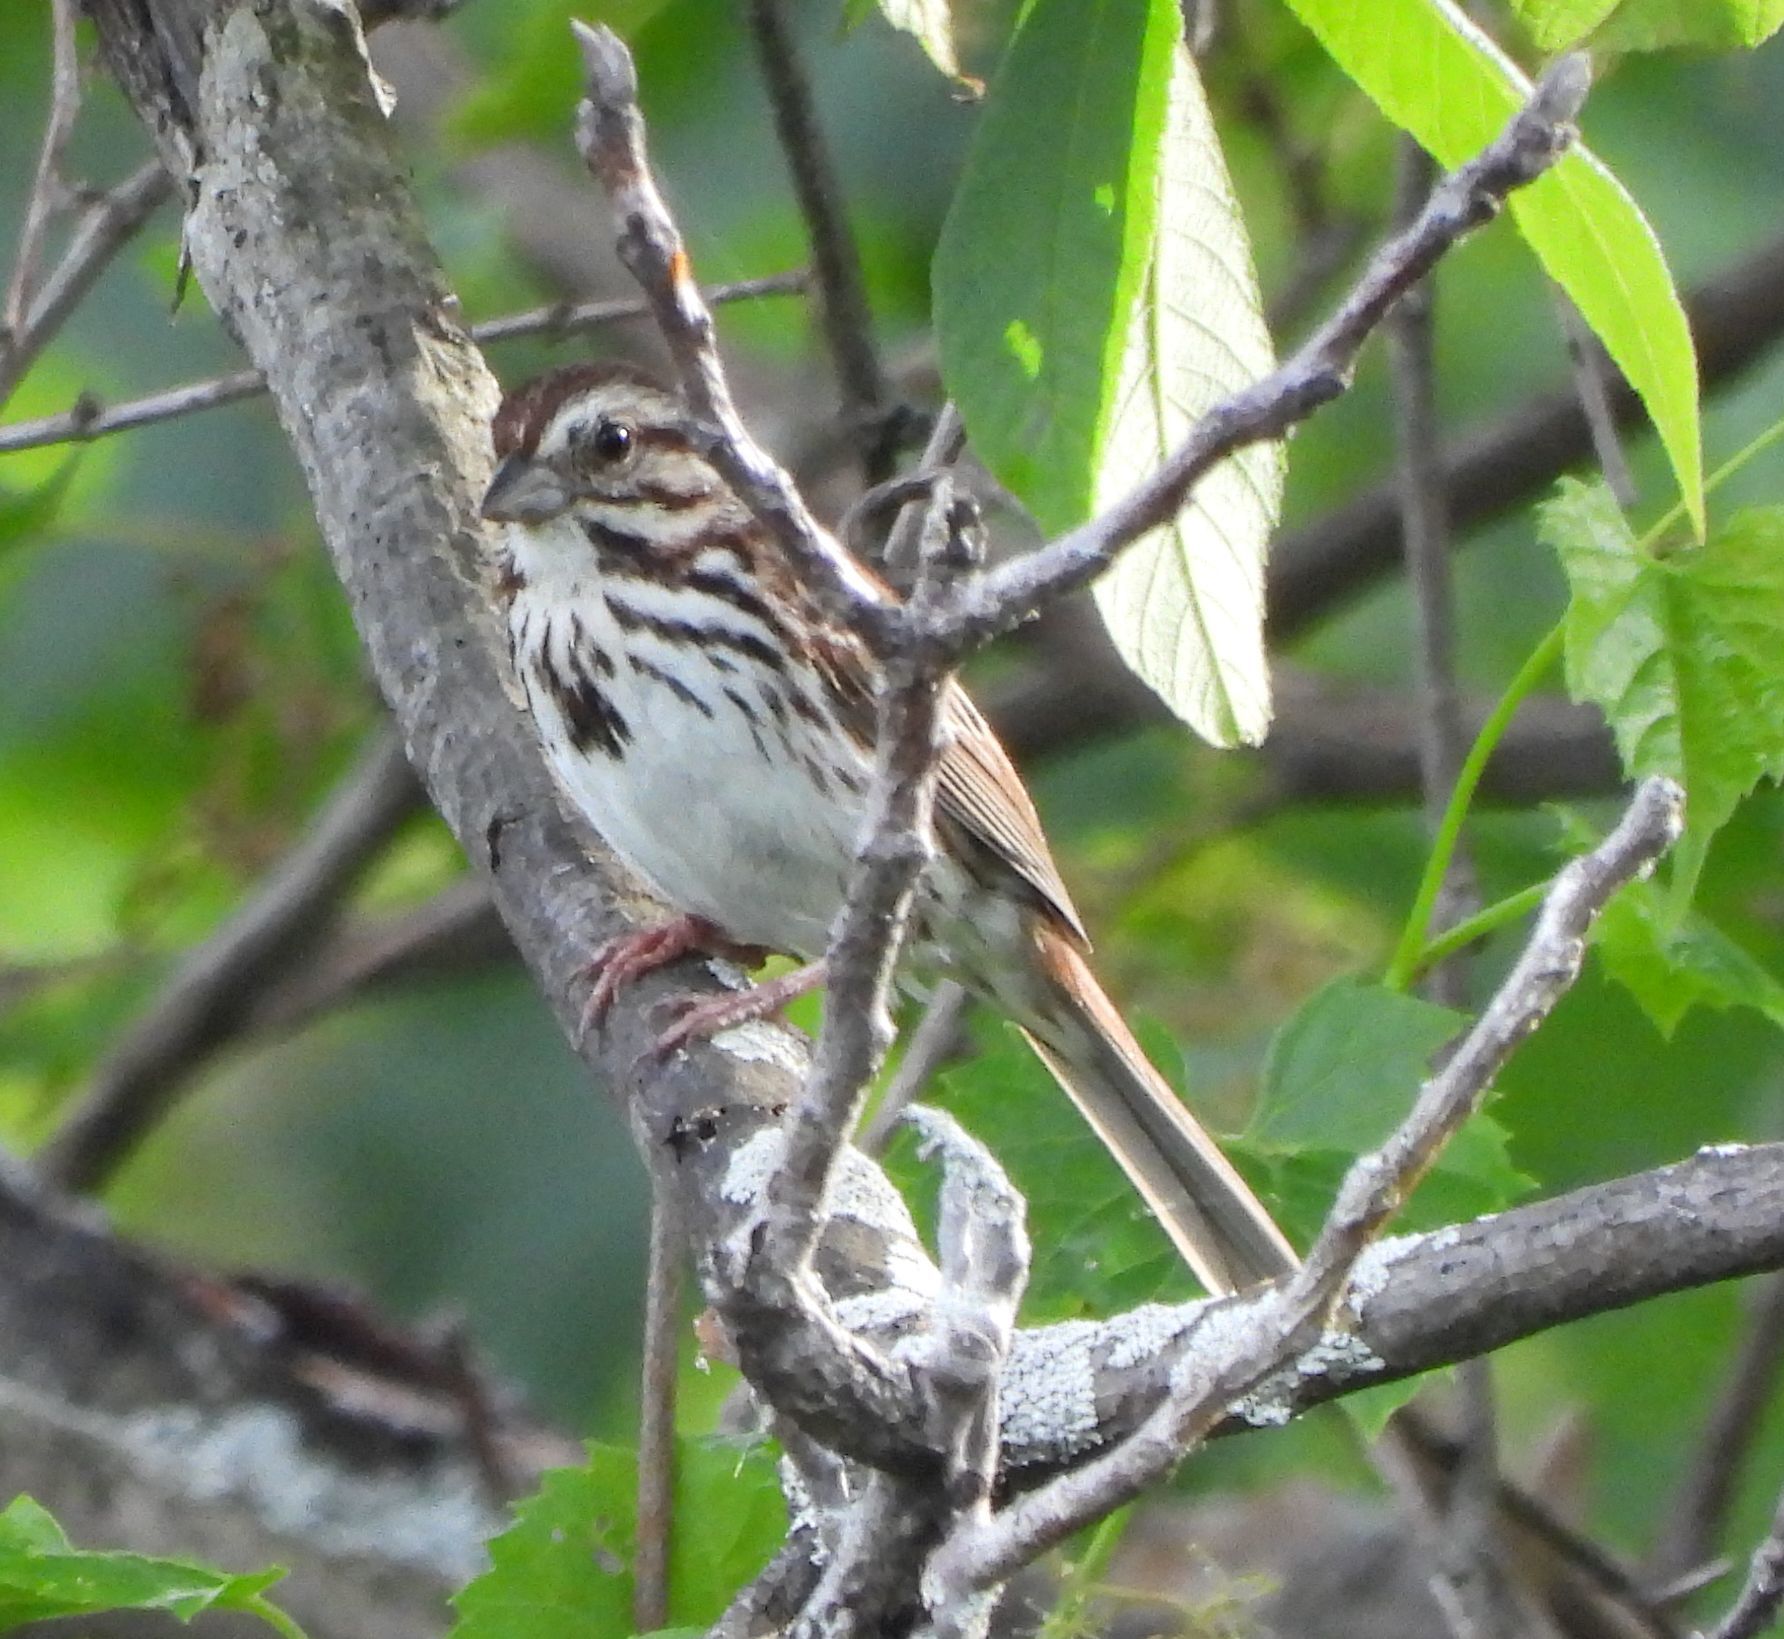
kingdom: Animalia
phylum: Chordata
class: Aves
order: Passeriformes
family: Passerellidae
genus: Melospiza
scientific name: Melospiza melodia
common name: Song sparrow
